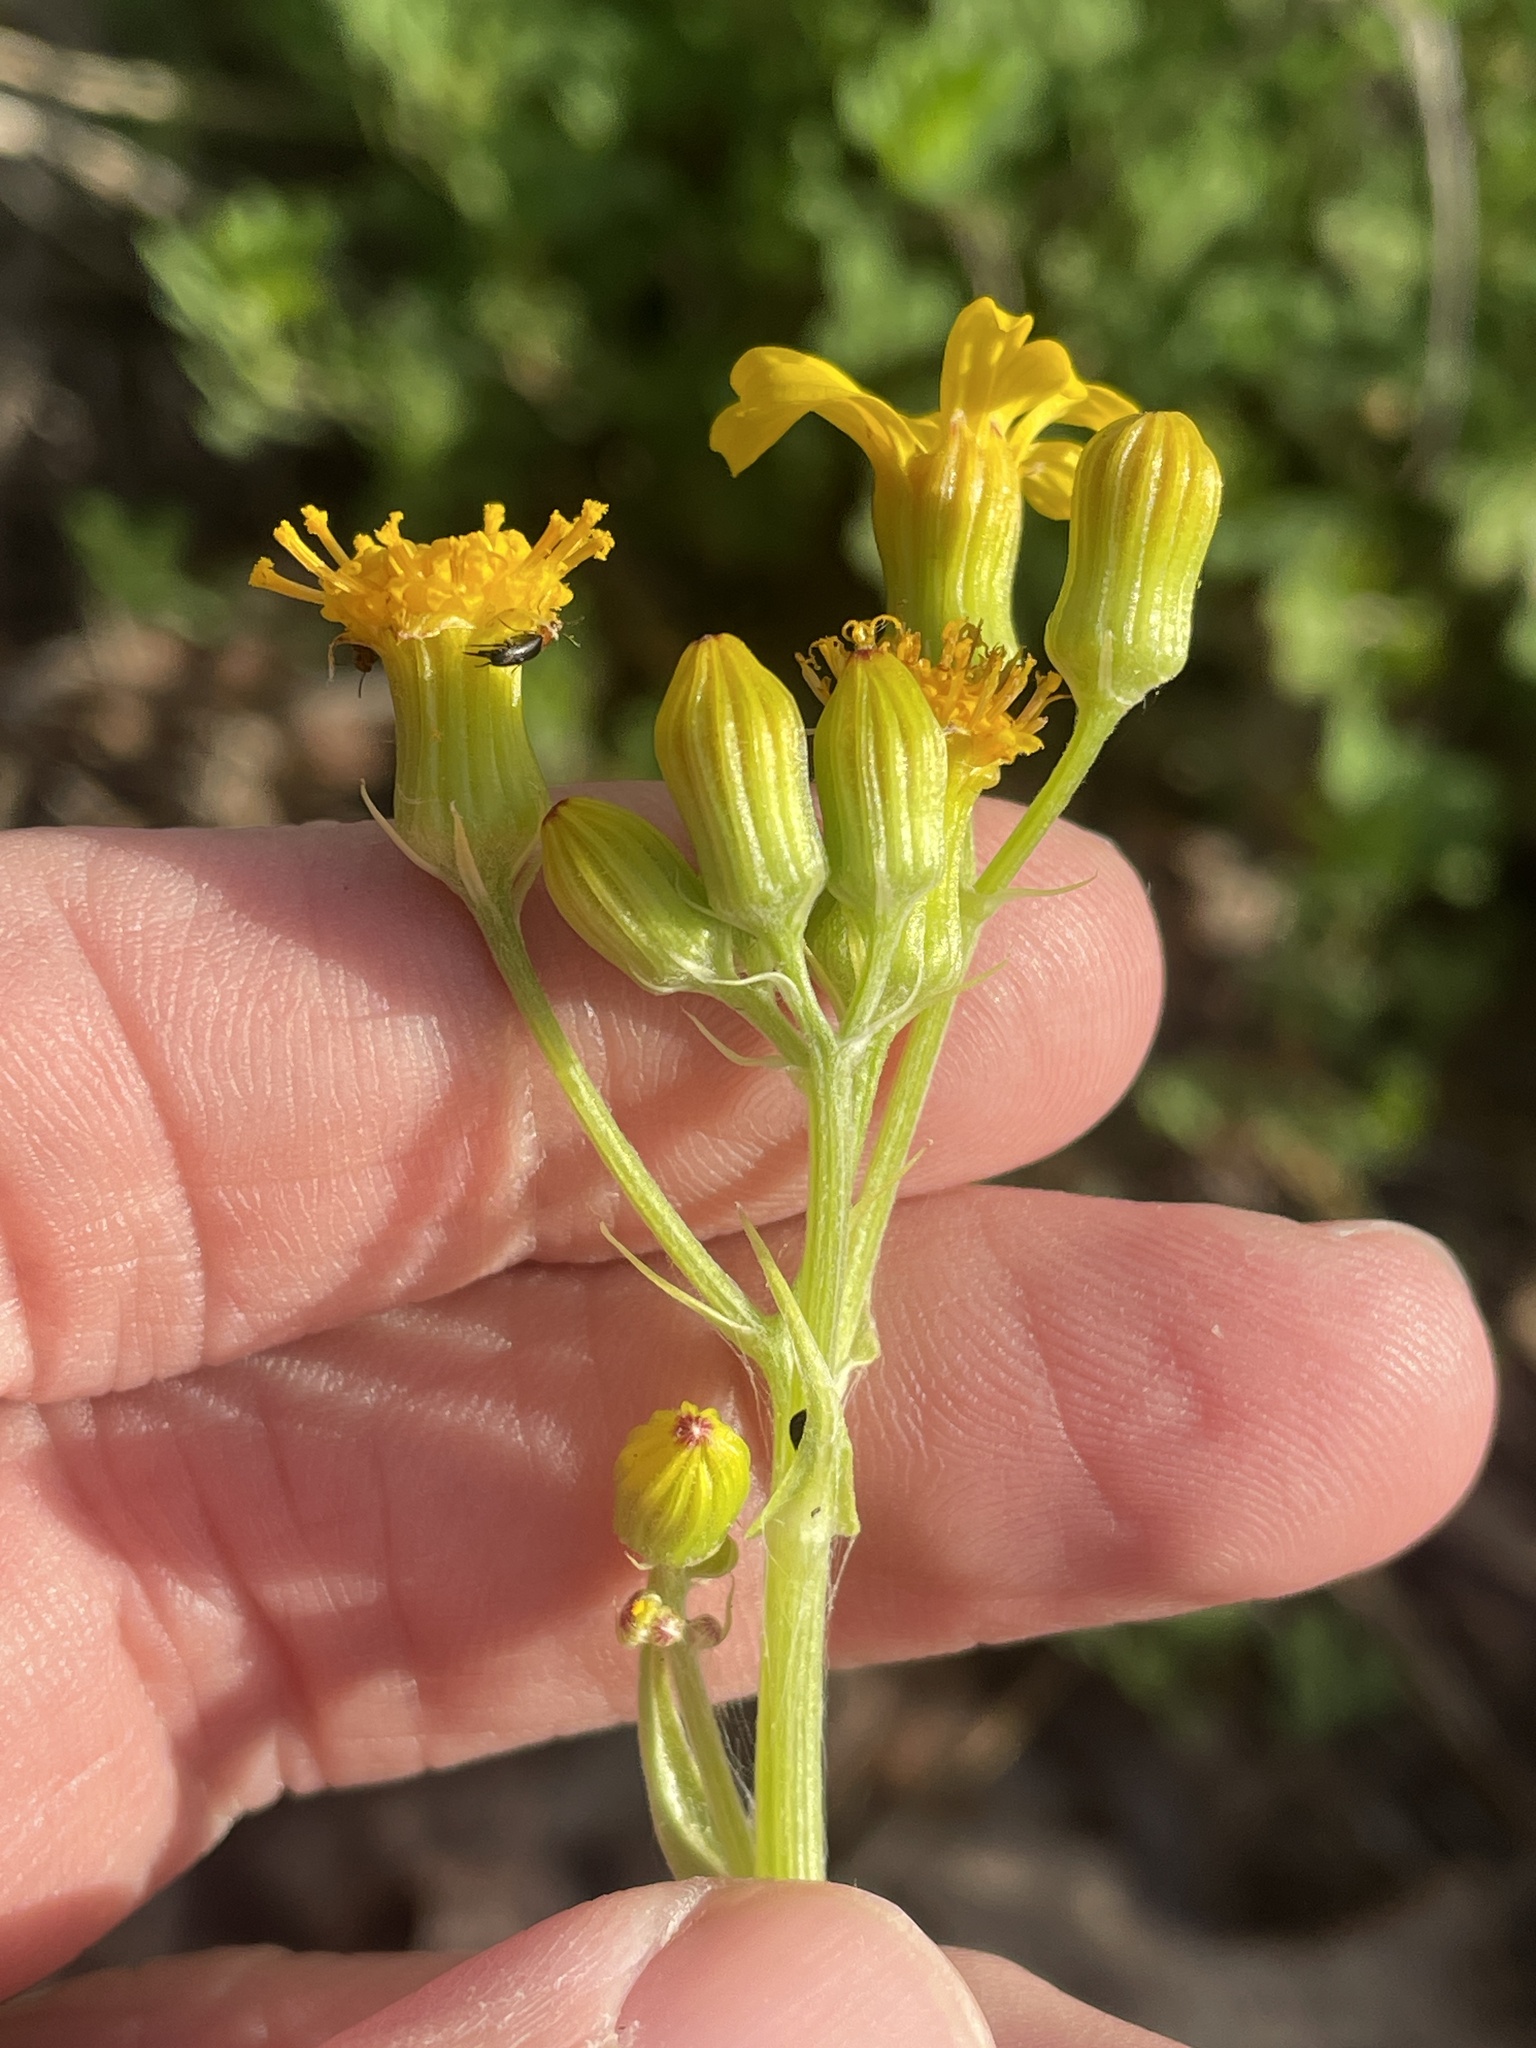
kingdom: Plantae
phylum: Tracheophyta
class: Magnoliopsida
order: Asterales
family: Asteraceae
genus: Senecio
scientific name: Senecio ampullaceus
